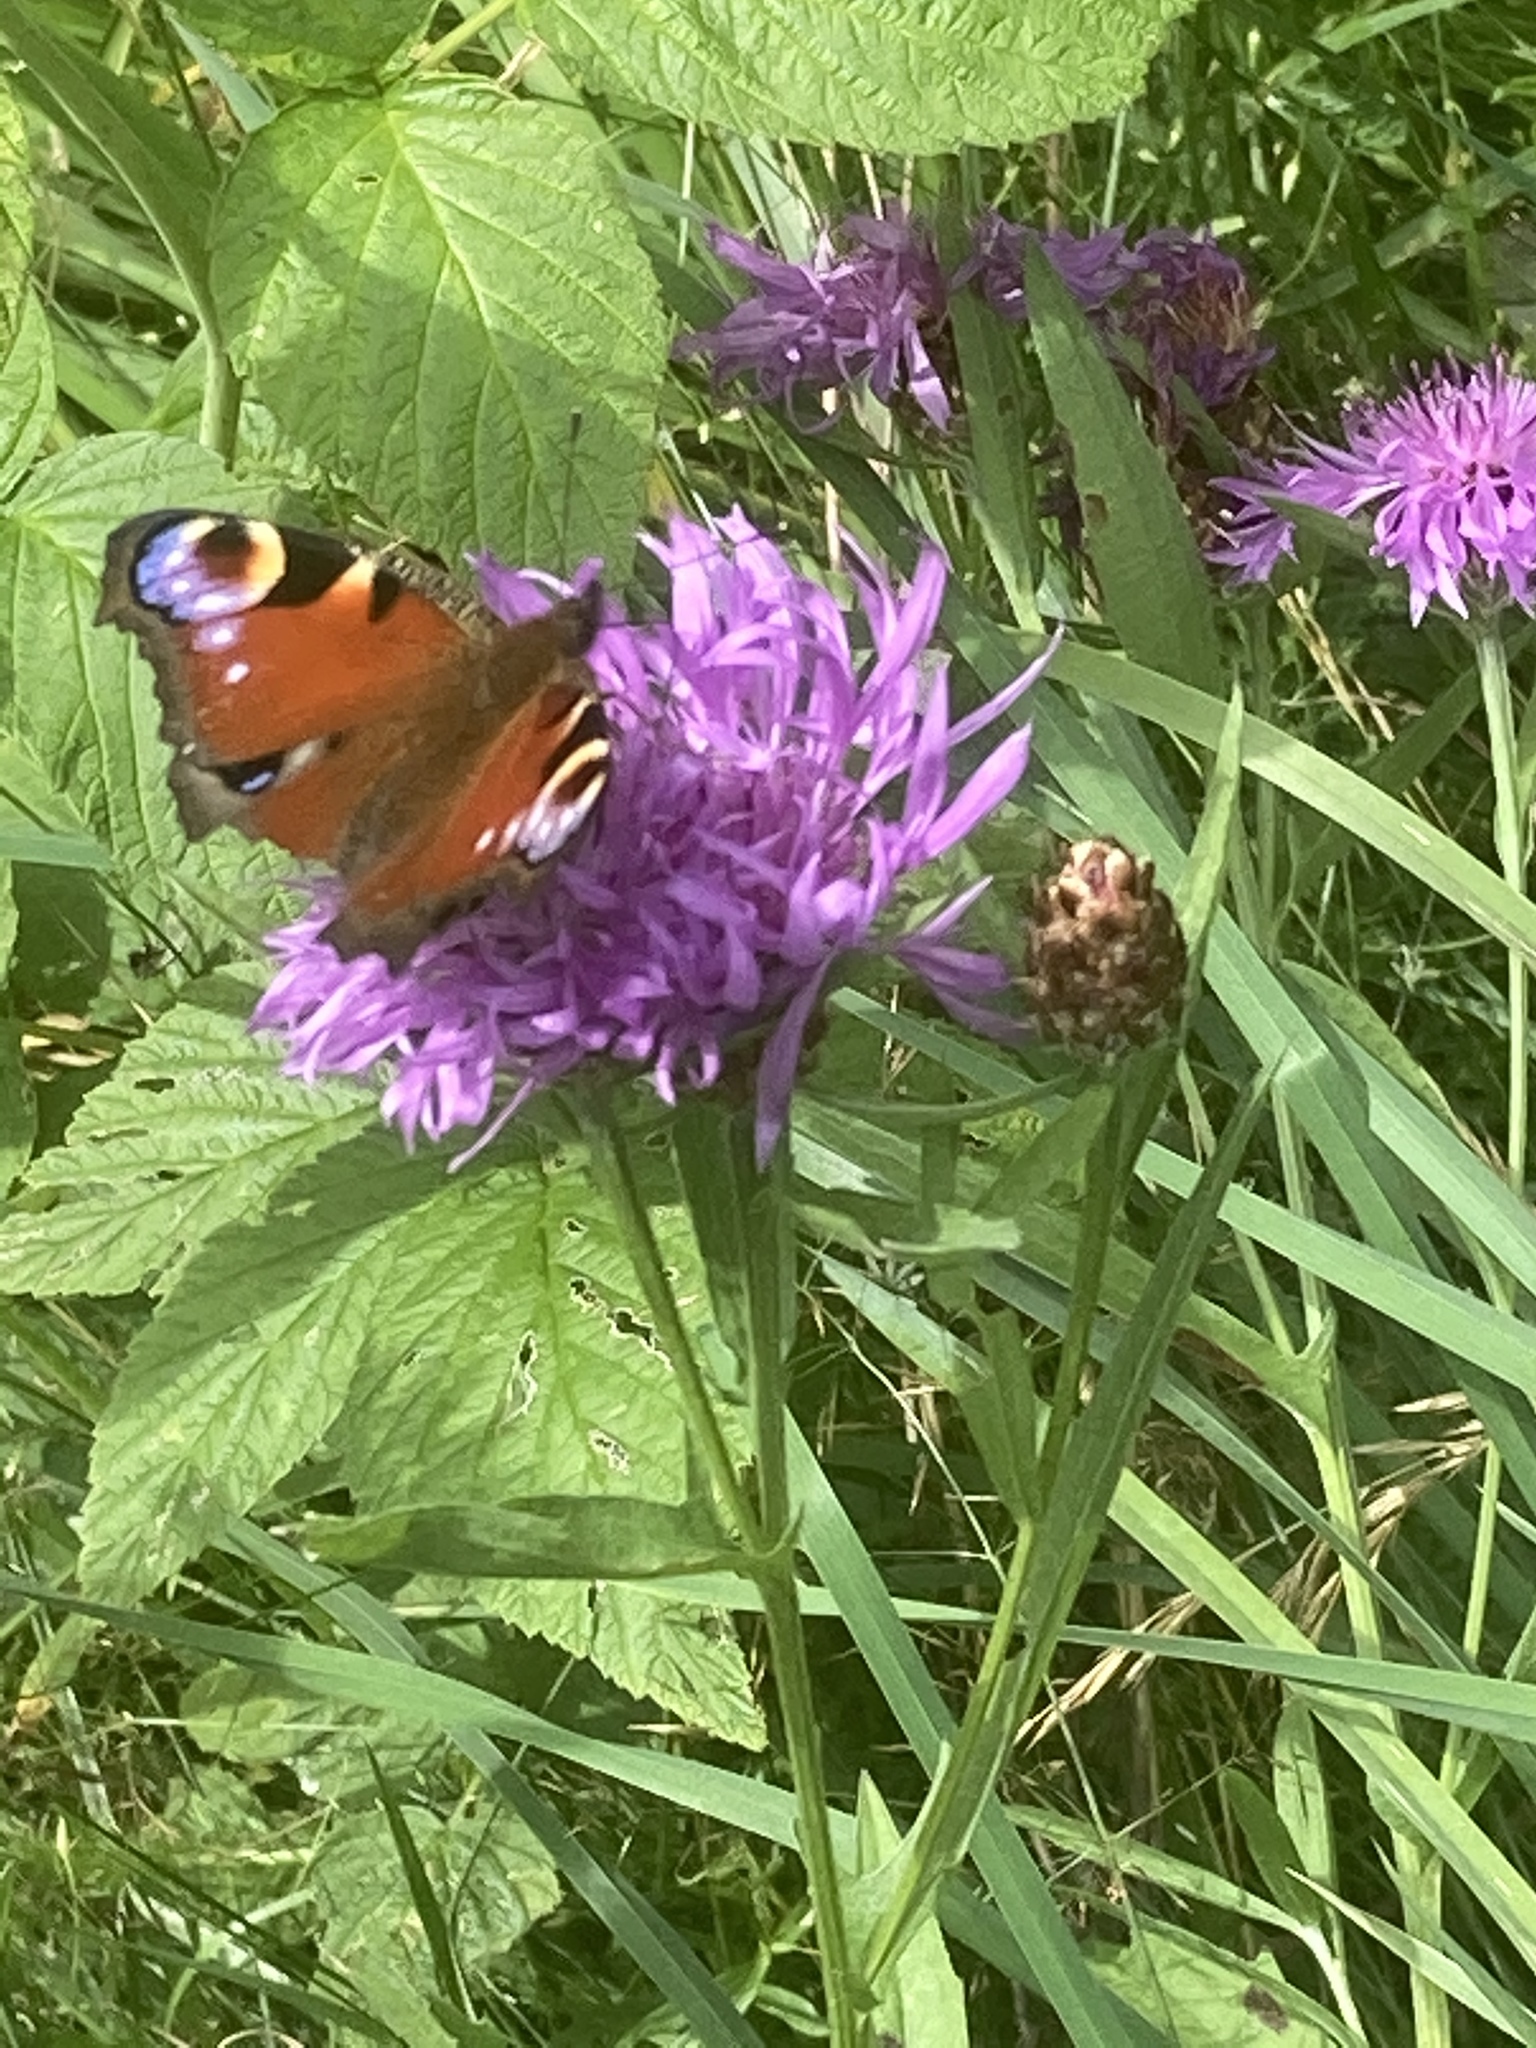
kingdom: Animalia
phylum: Arthropoda
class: Insecta
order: Lepidoptera
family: Nymphalidae
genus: Aglais
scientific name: Aglais io
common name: Peacock
